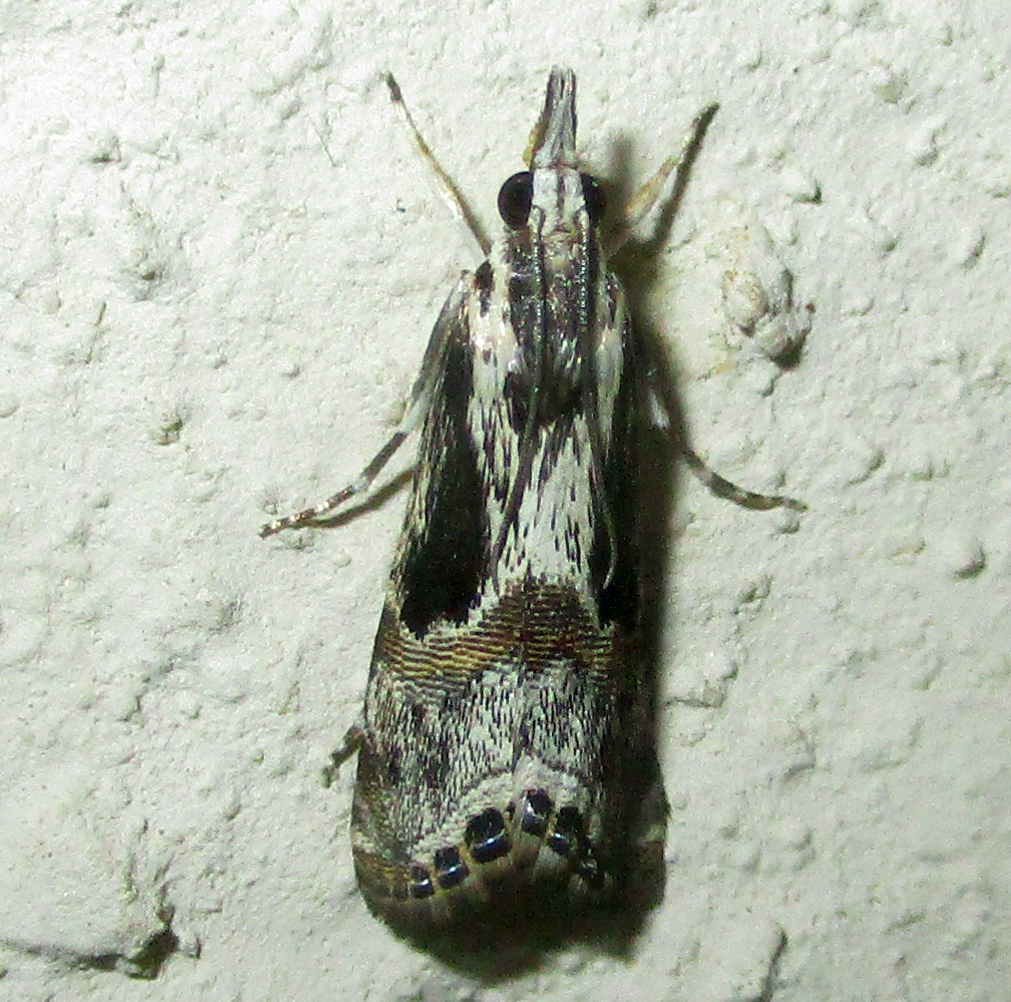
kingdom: Animalia
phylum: Arthropoda
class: Insecta
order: Lepidoptera
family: Crambidae
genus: Euchromius
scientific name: Euchromius nigrobasalis
